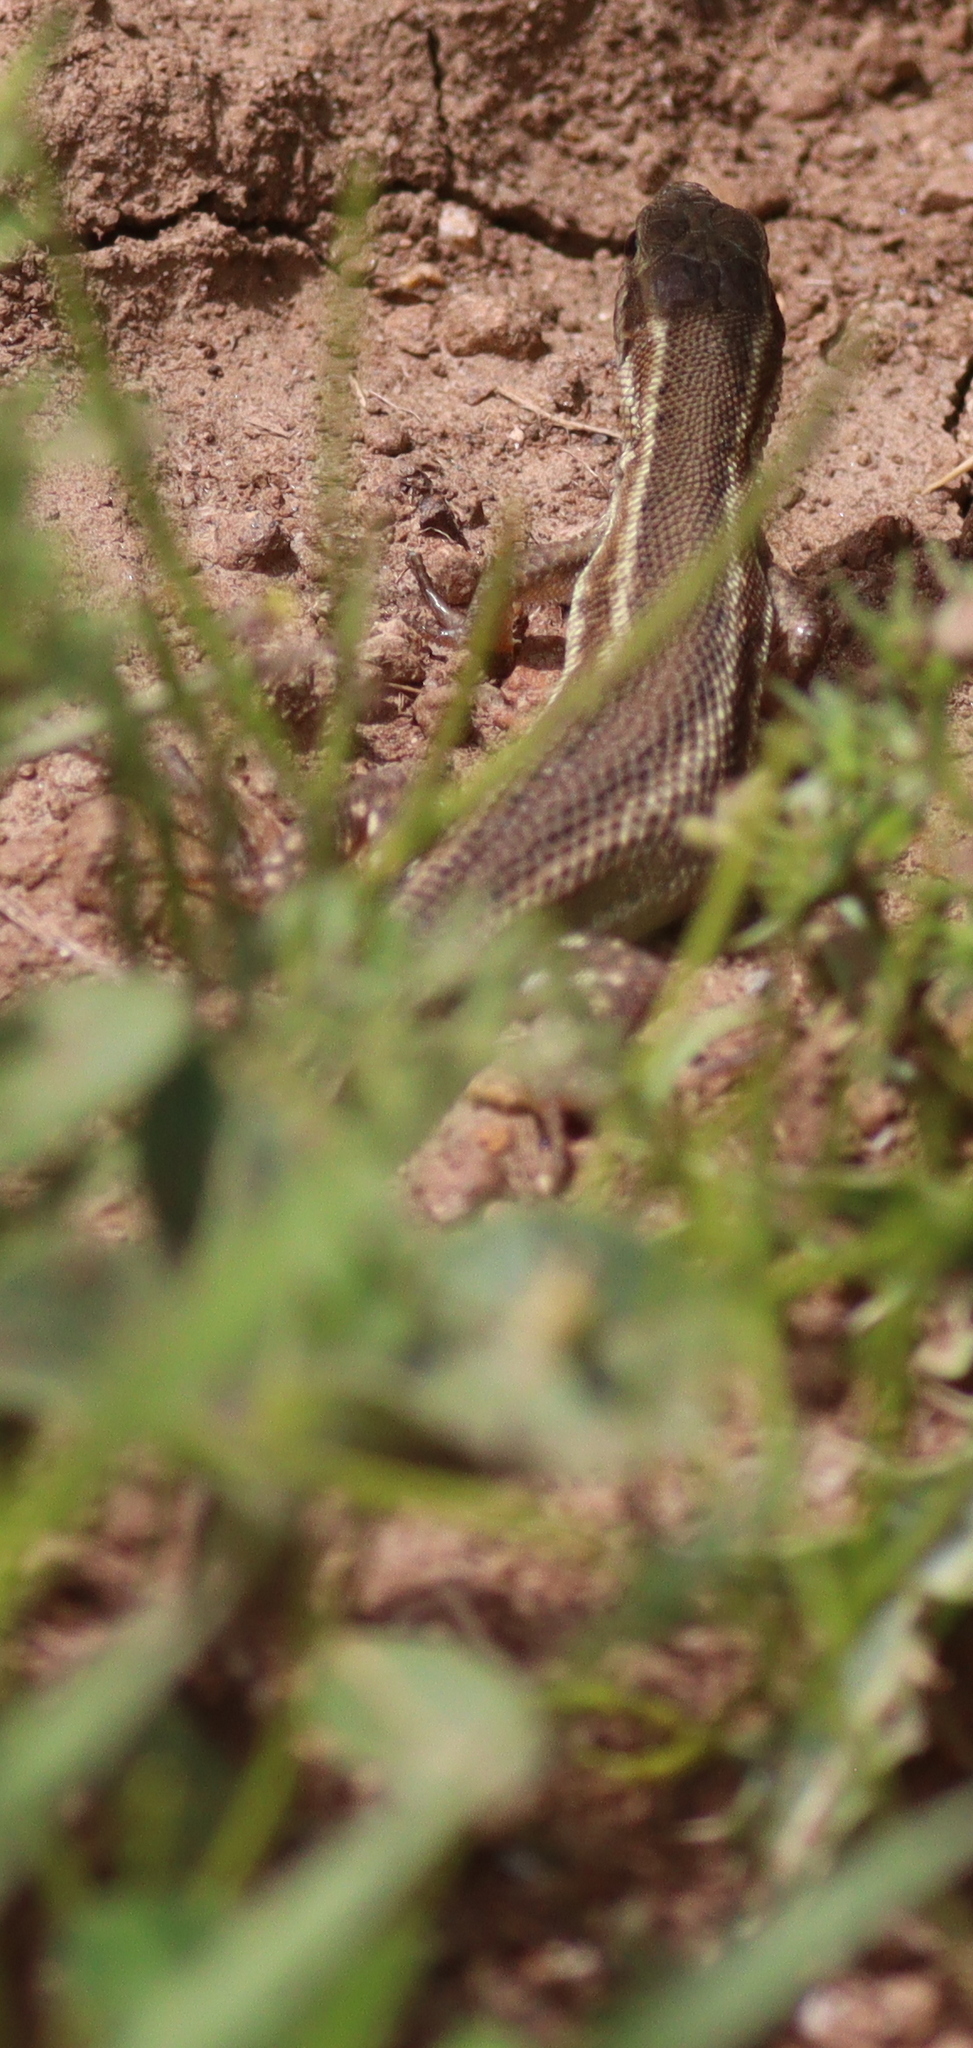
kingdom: Animalia
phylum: Chordata
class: Squamata
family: Lacertidae
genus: Ophisops
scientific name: Ophisops elegans
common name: Snake-eyed lizard
